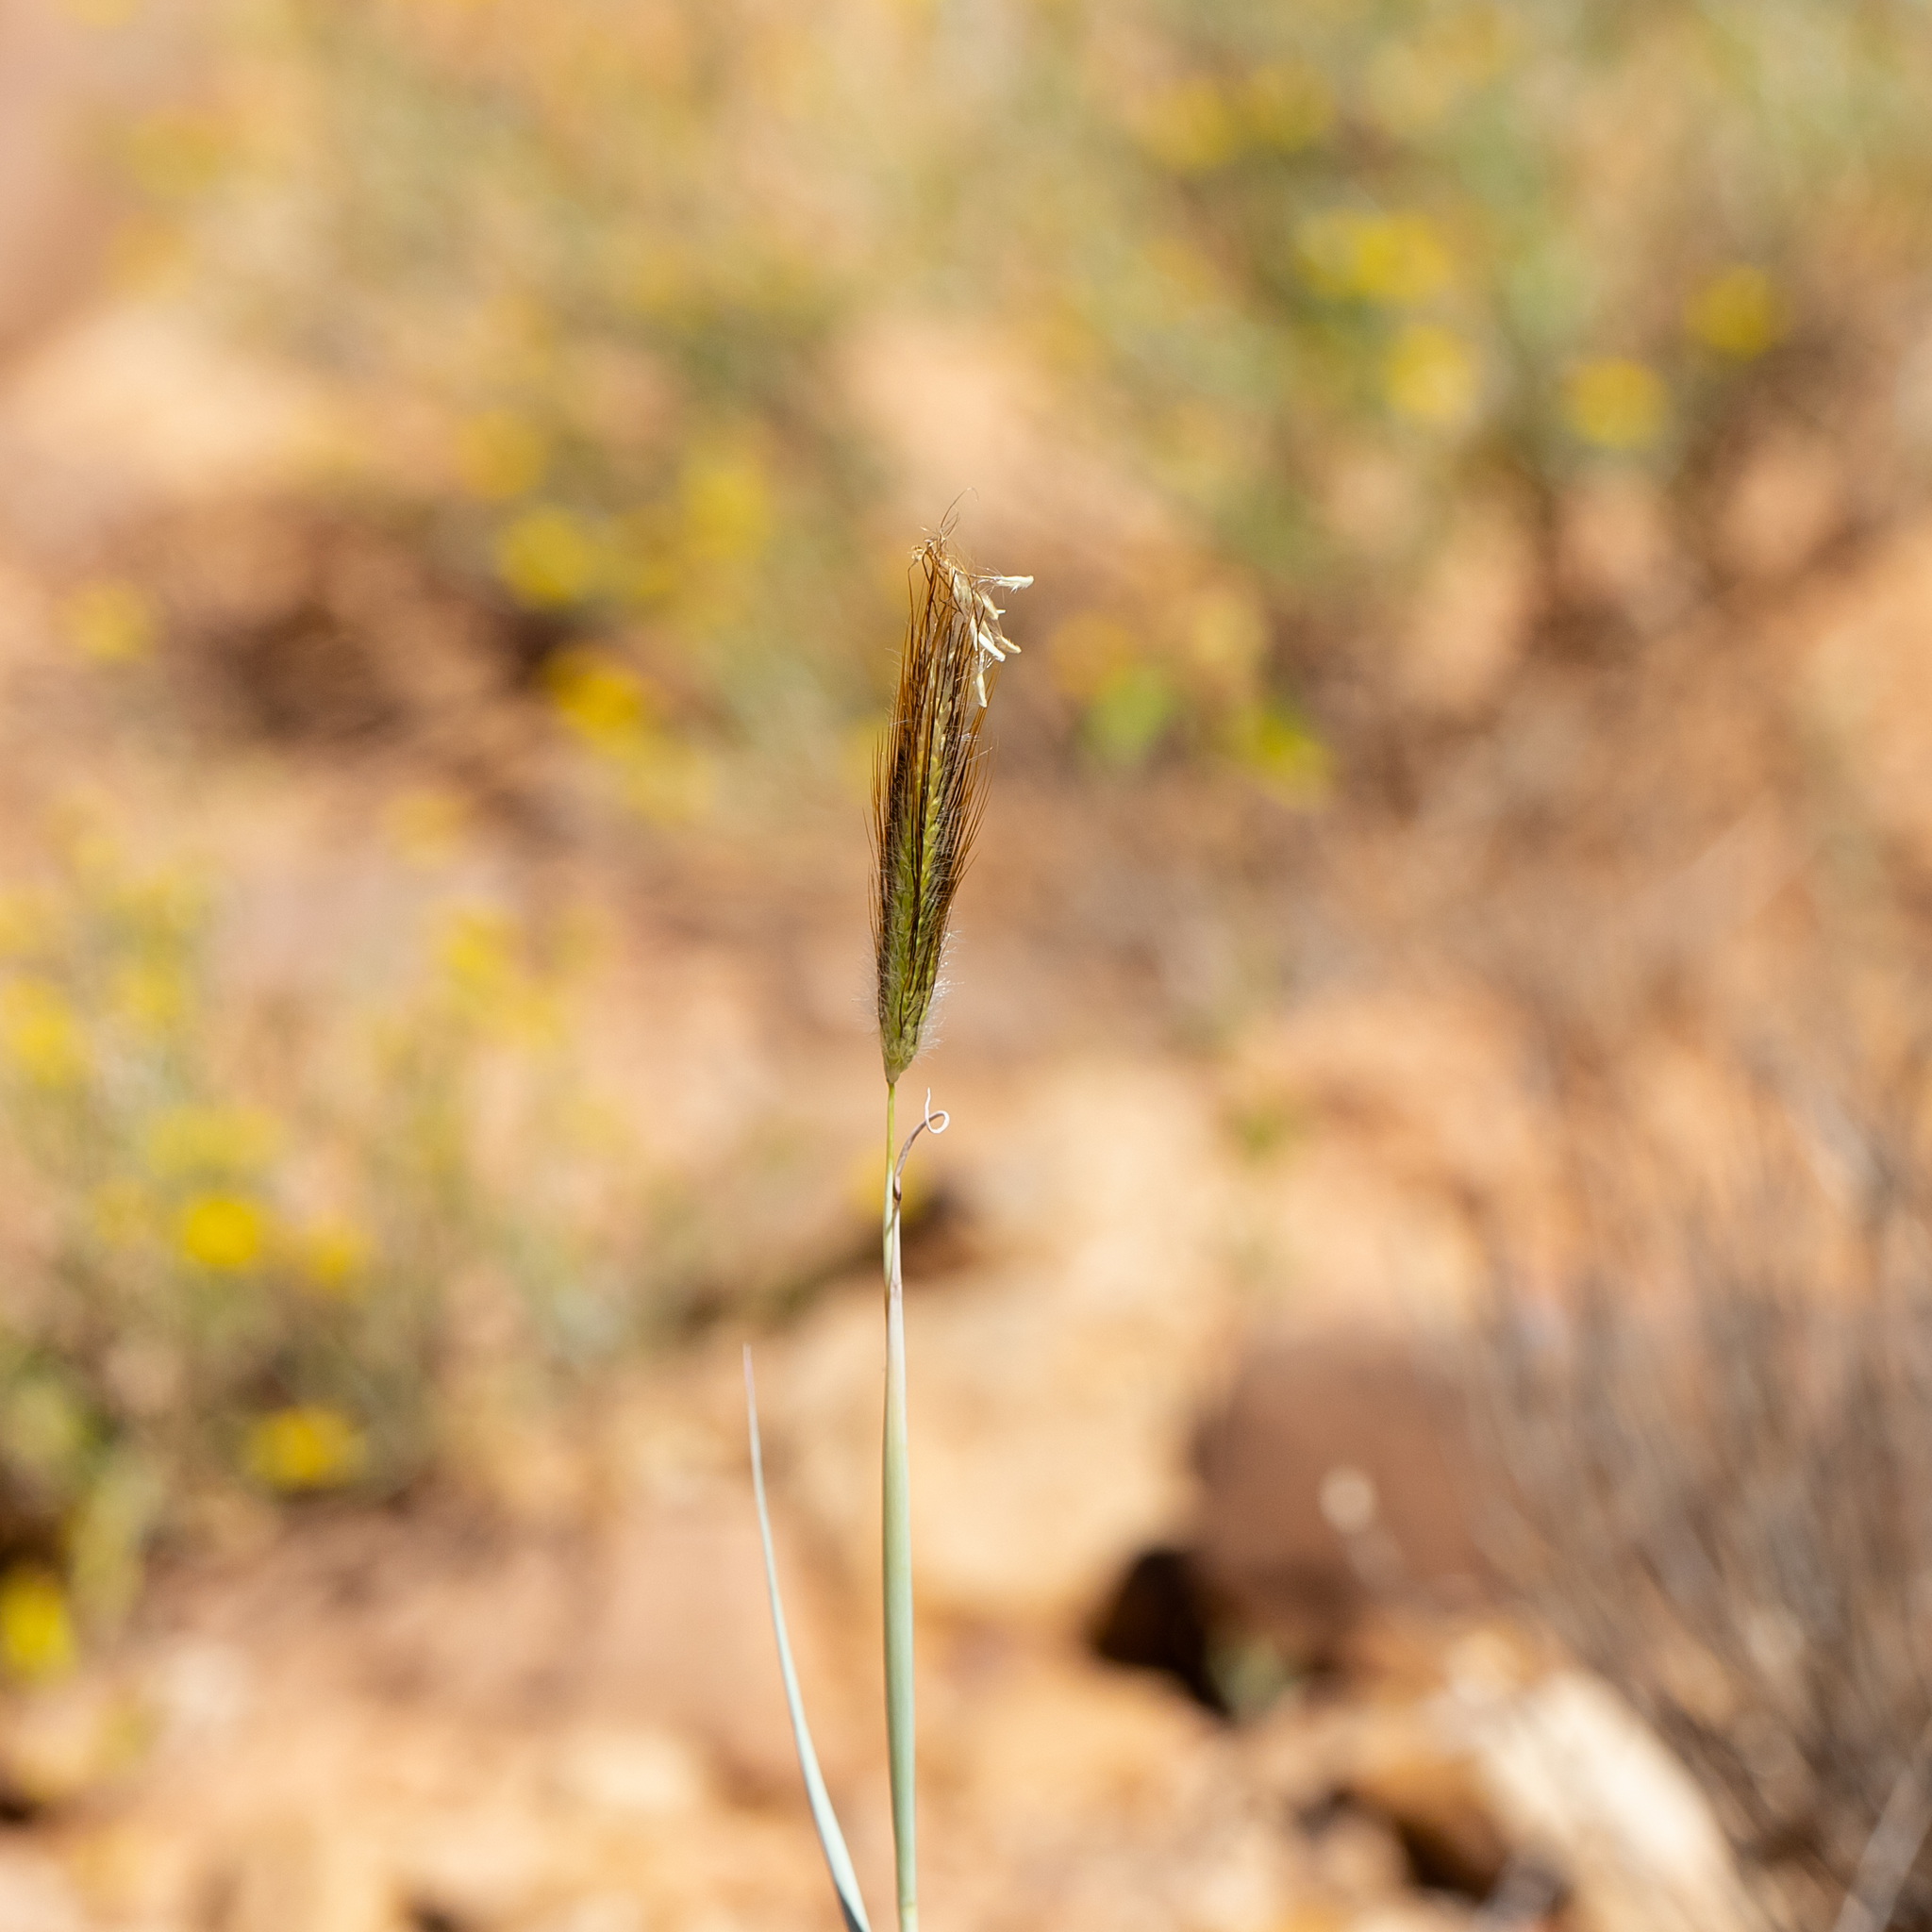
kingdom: Plantae
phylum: Tracheophyta
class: Liliopsida
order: Poales
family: Poaceae
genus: Dichanthium
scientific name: Dichanthium sericeum
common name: Silky bluestem
